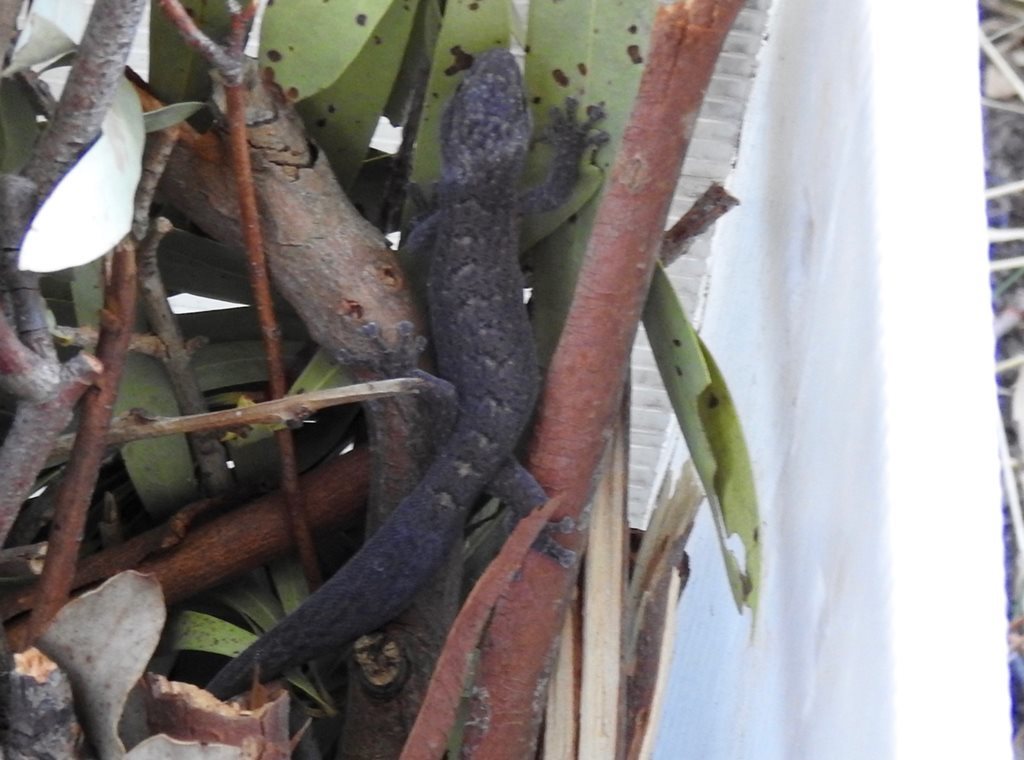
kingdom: Animalia
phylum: Chordata
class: Squamata
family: Gekkonidae
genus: Christinus
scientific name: Christinus marmoratus
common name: Marbled gecko
